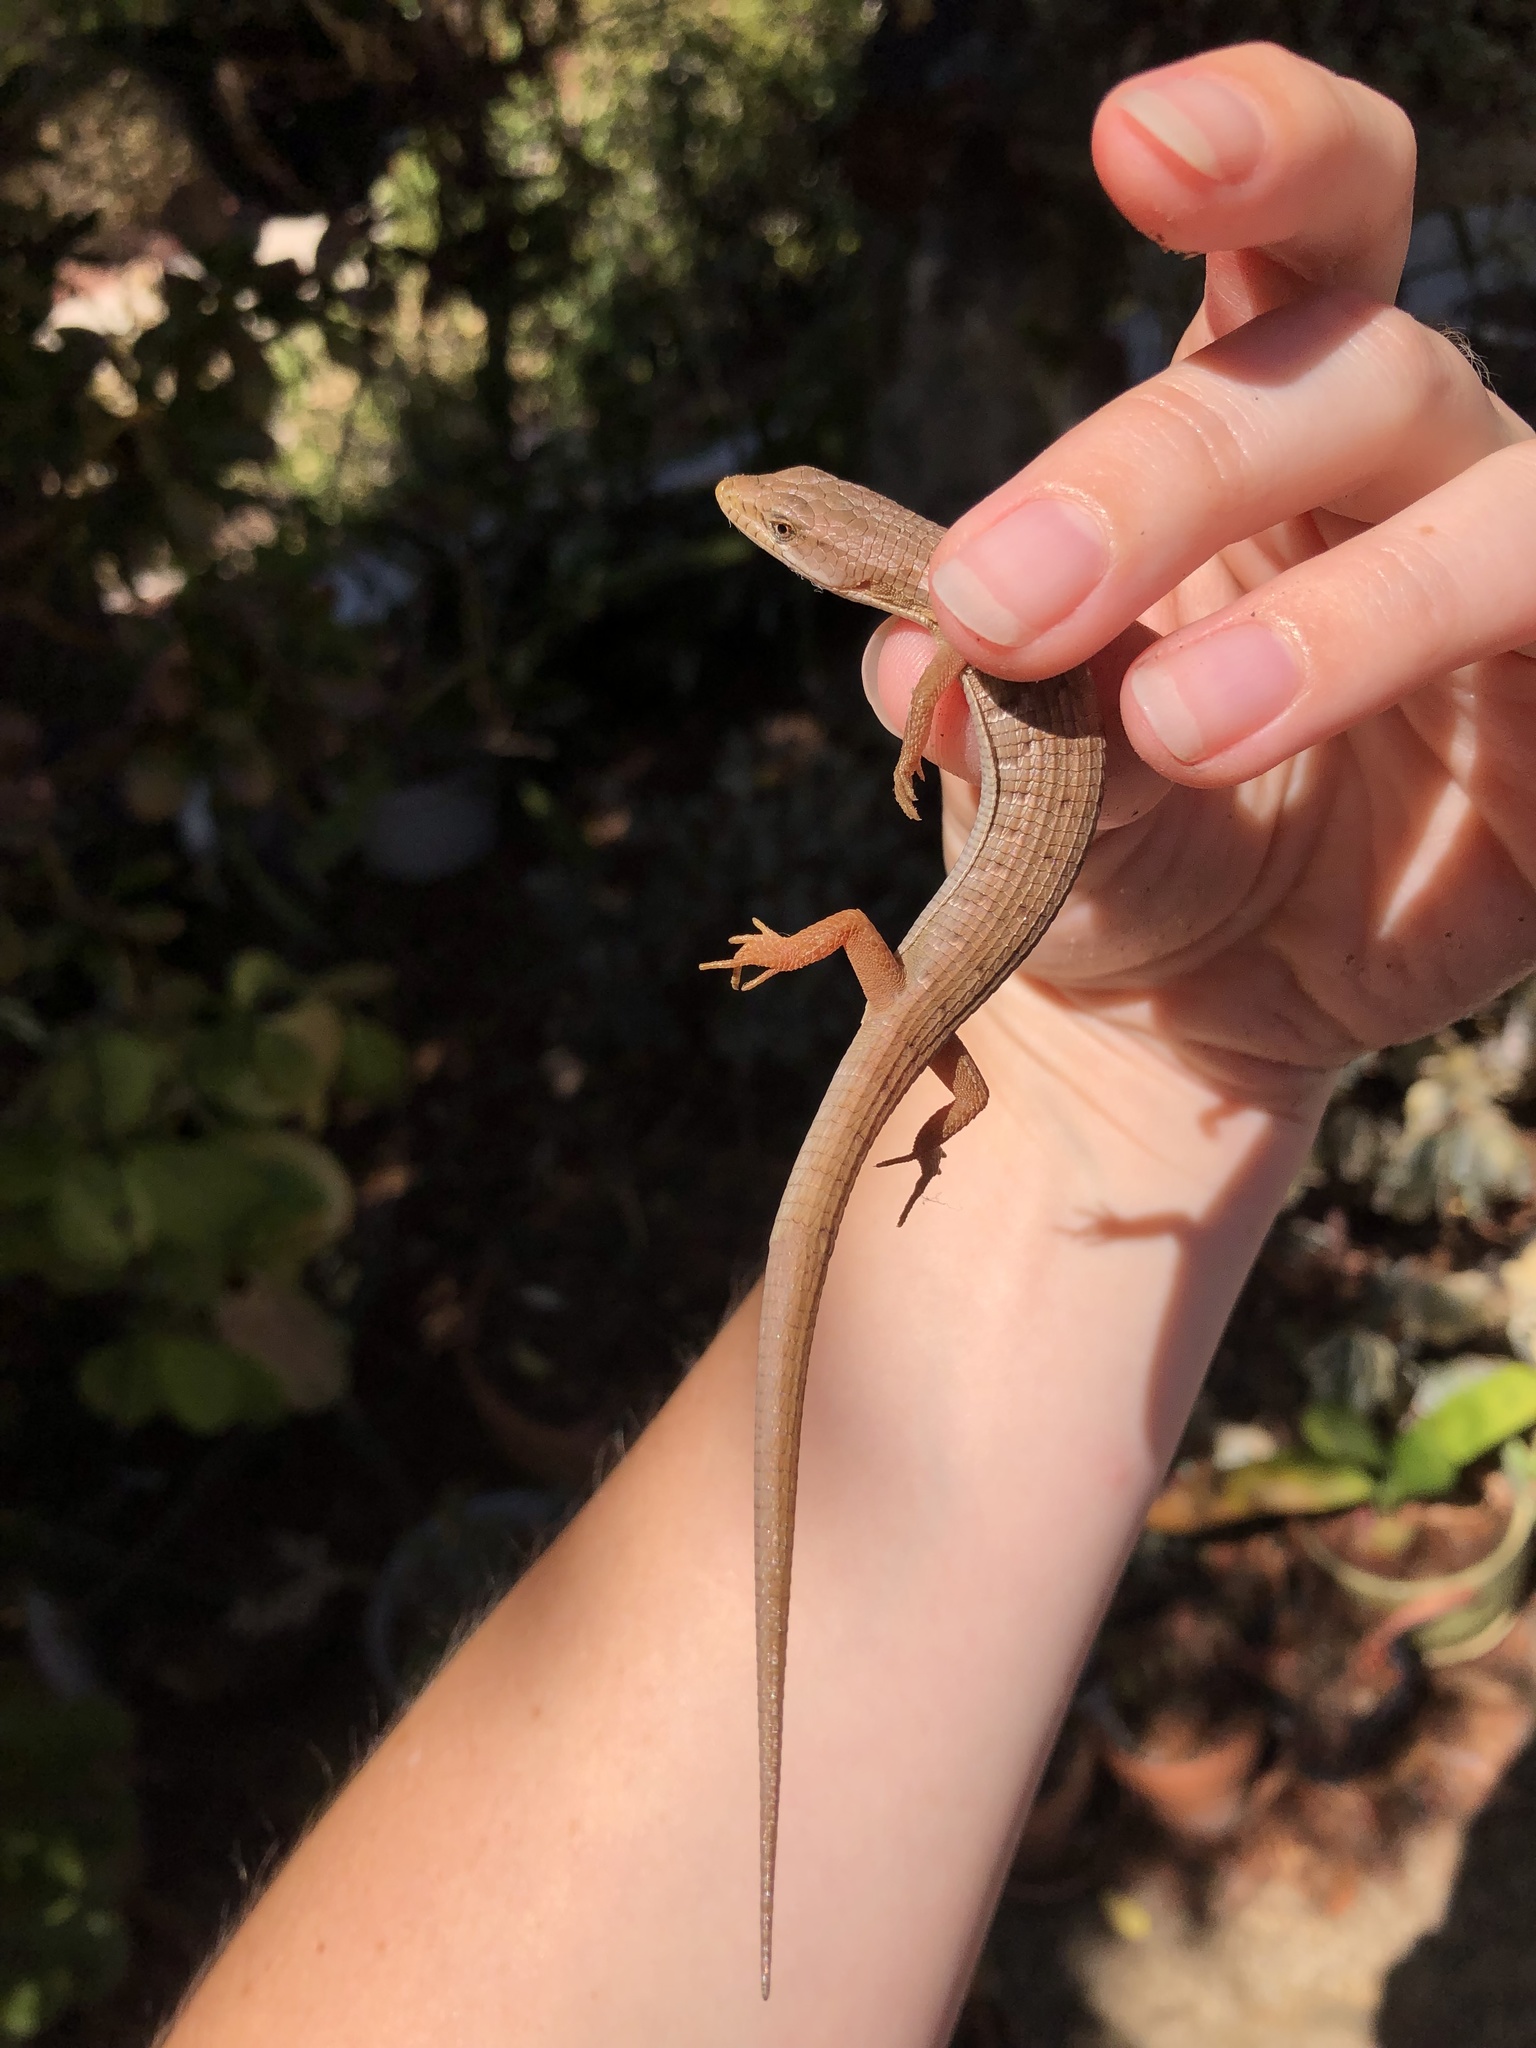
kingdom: Animalia
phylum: Chordata
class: Squamata
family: Anguidae
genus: Elgaria
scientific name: Elgaria multicarinata
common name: Southern alligator lizard
